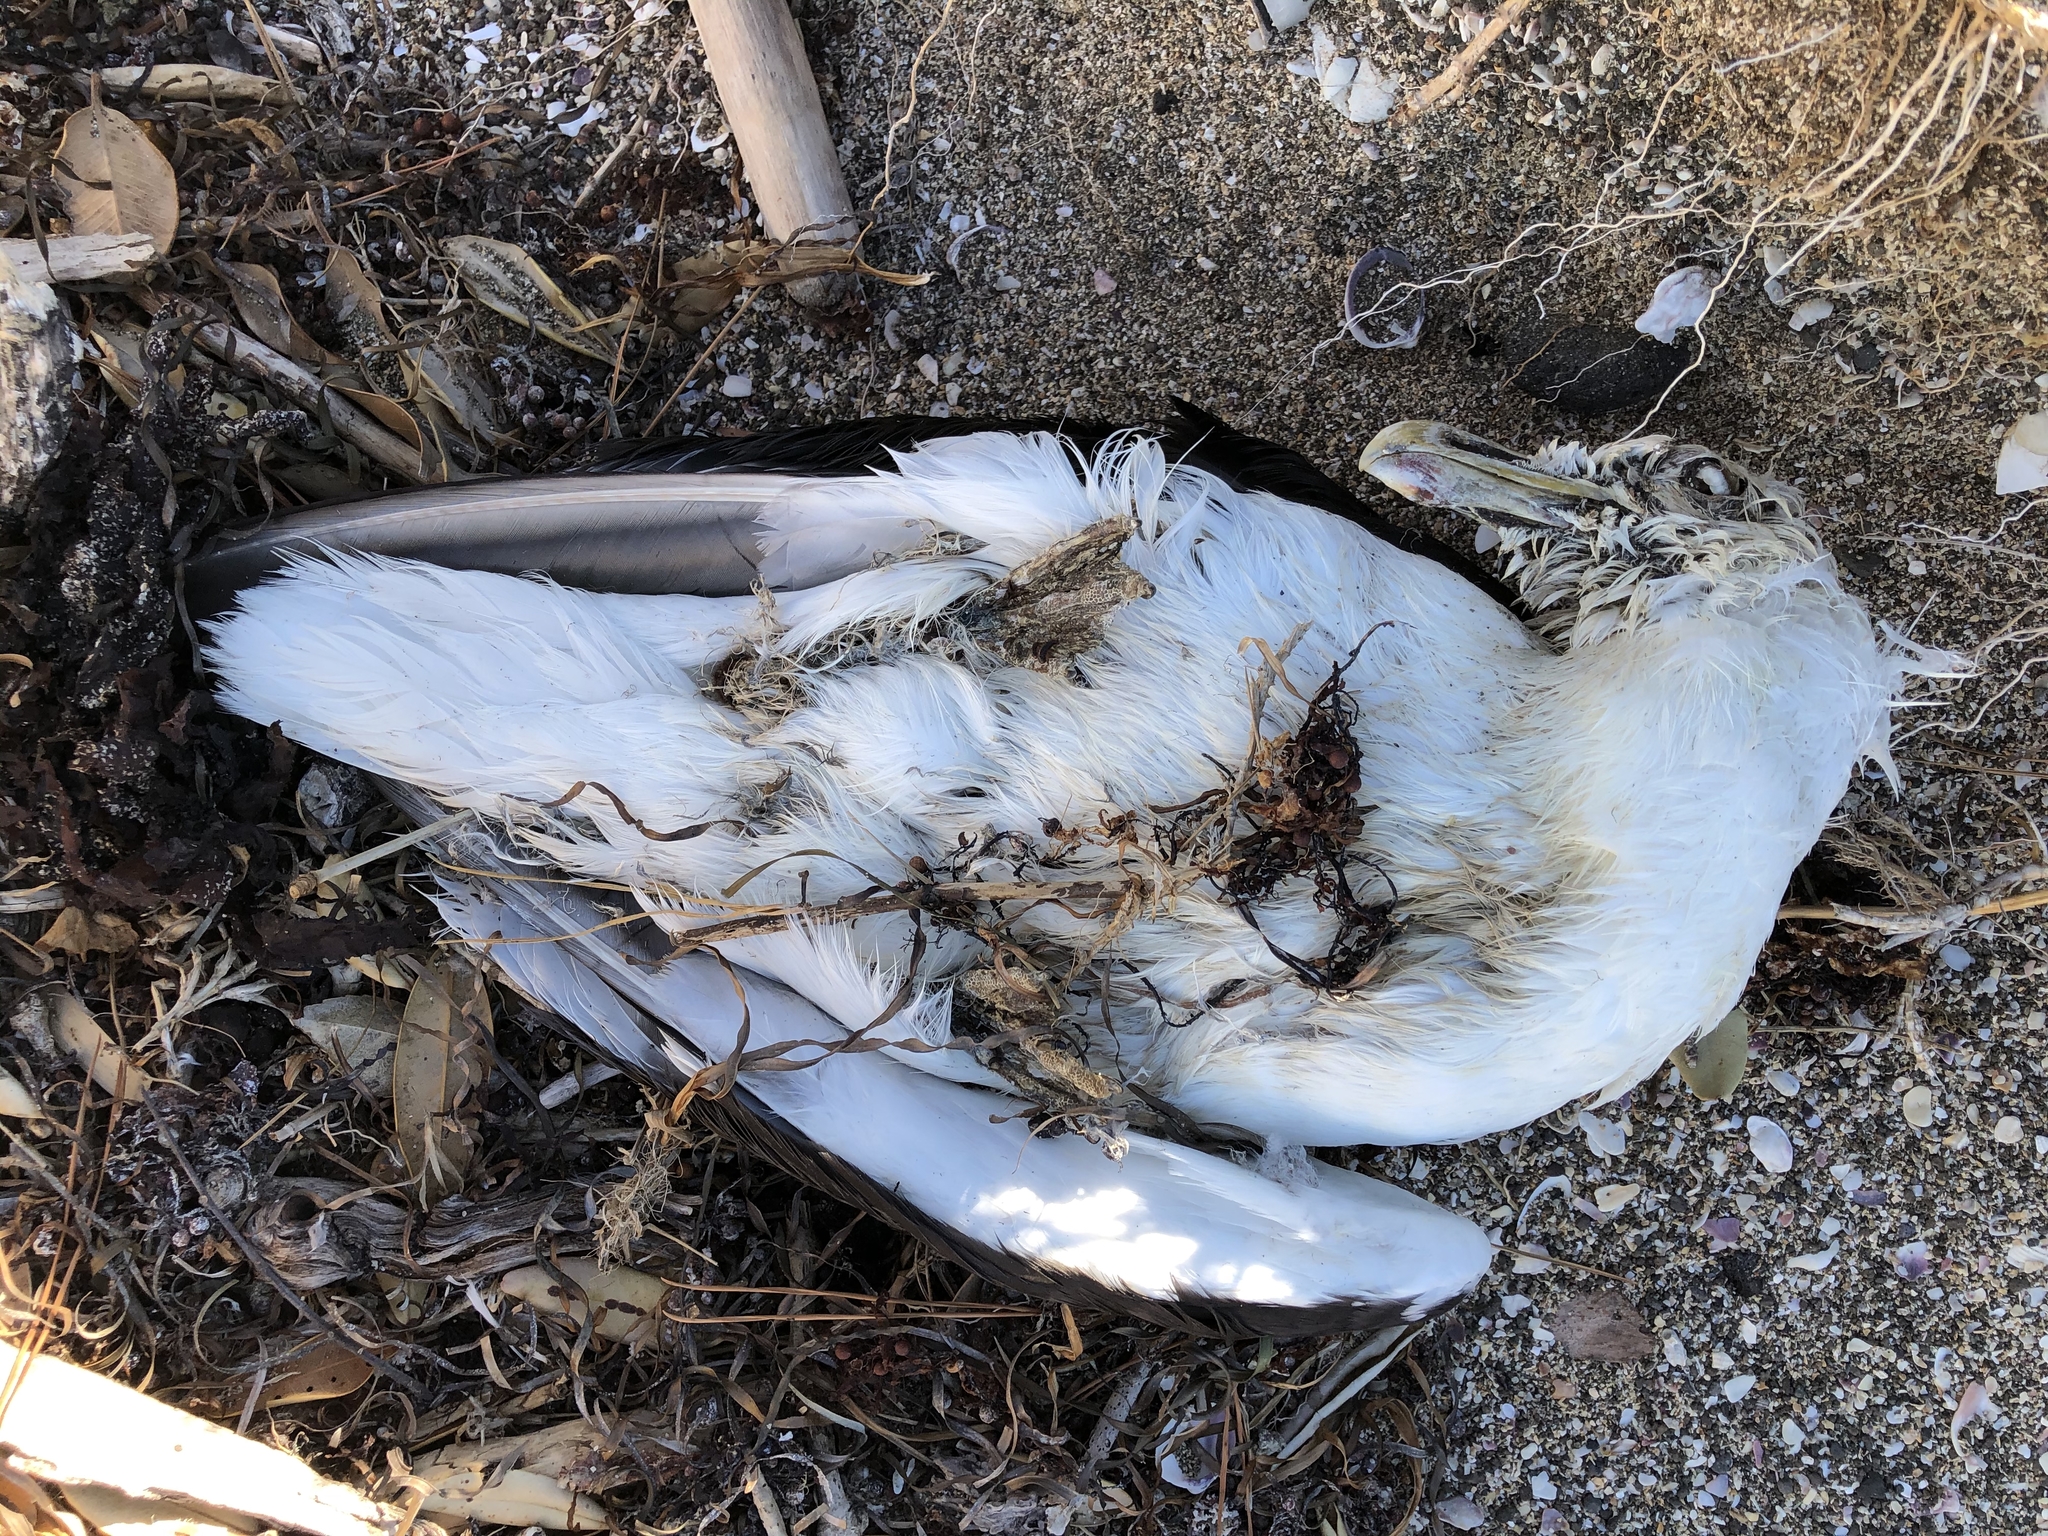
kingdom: Animalia
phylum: Chordata
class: Aves
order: Charadriiformes
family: Laridae
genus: Larus
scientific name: Larus dominicanus
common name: Kelp gull
